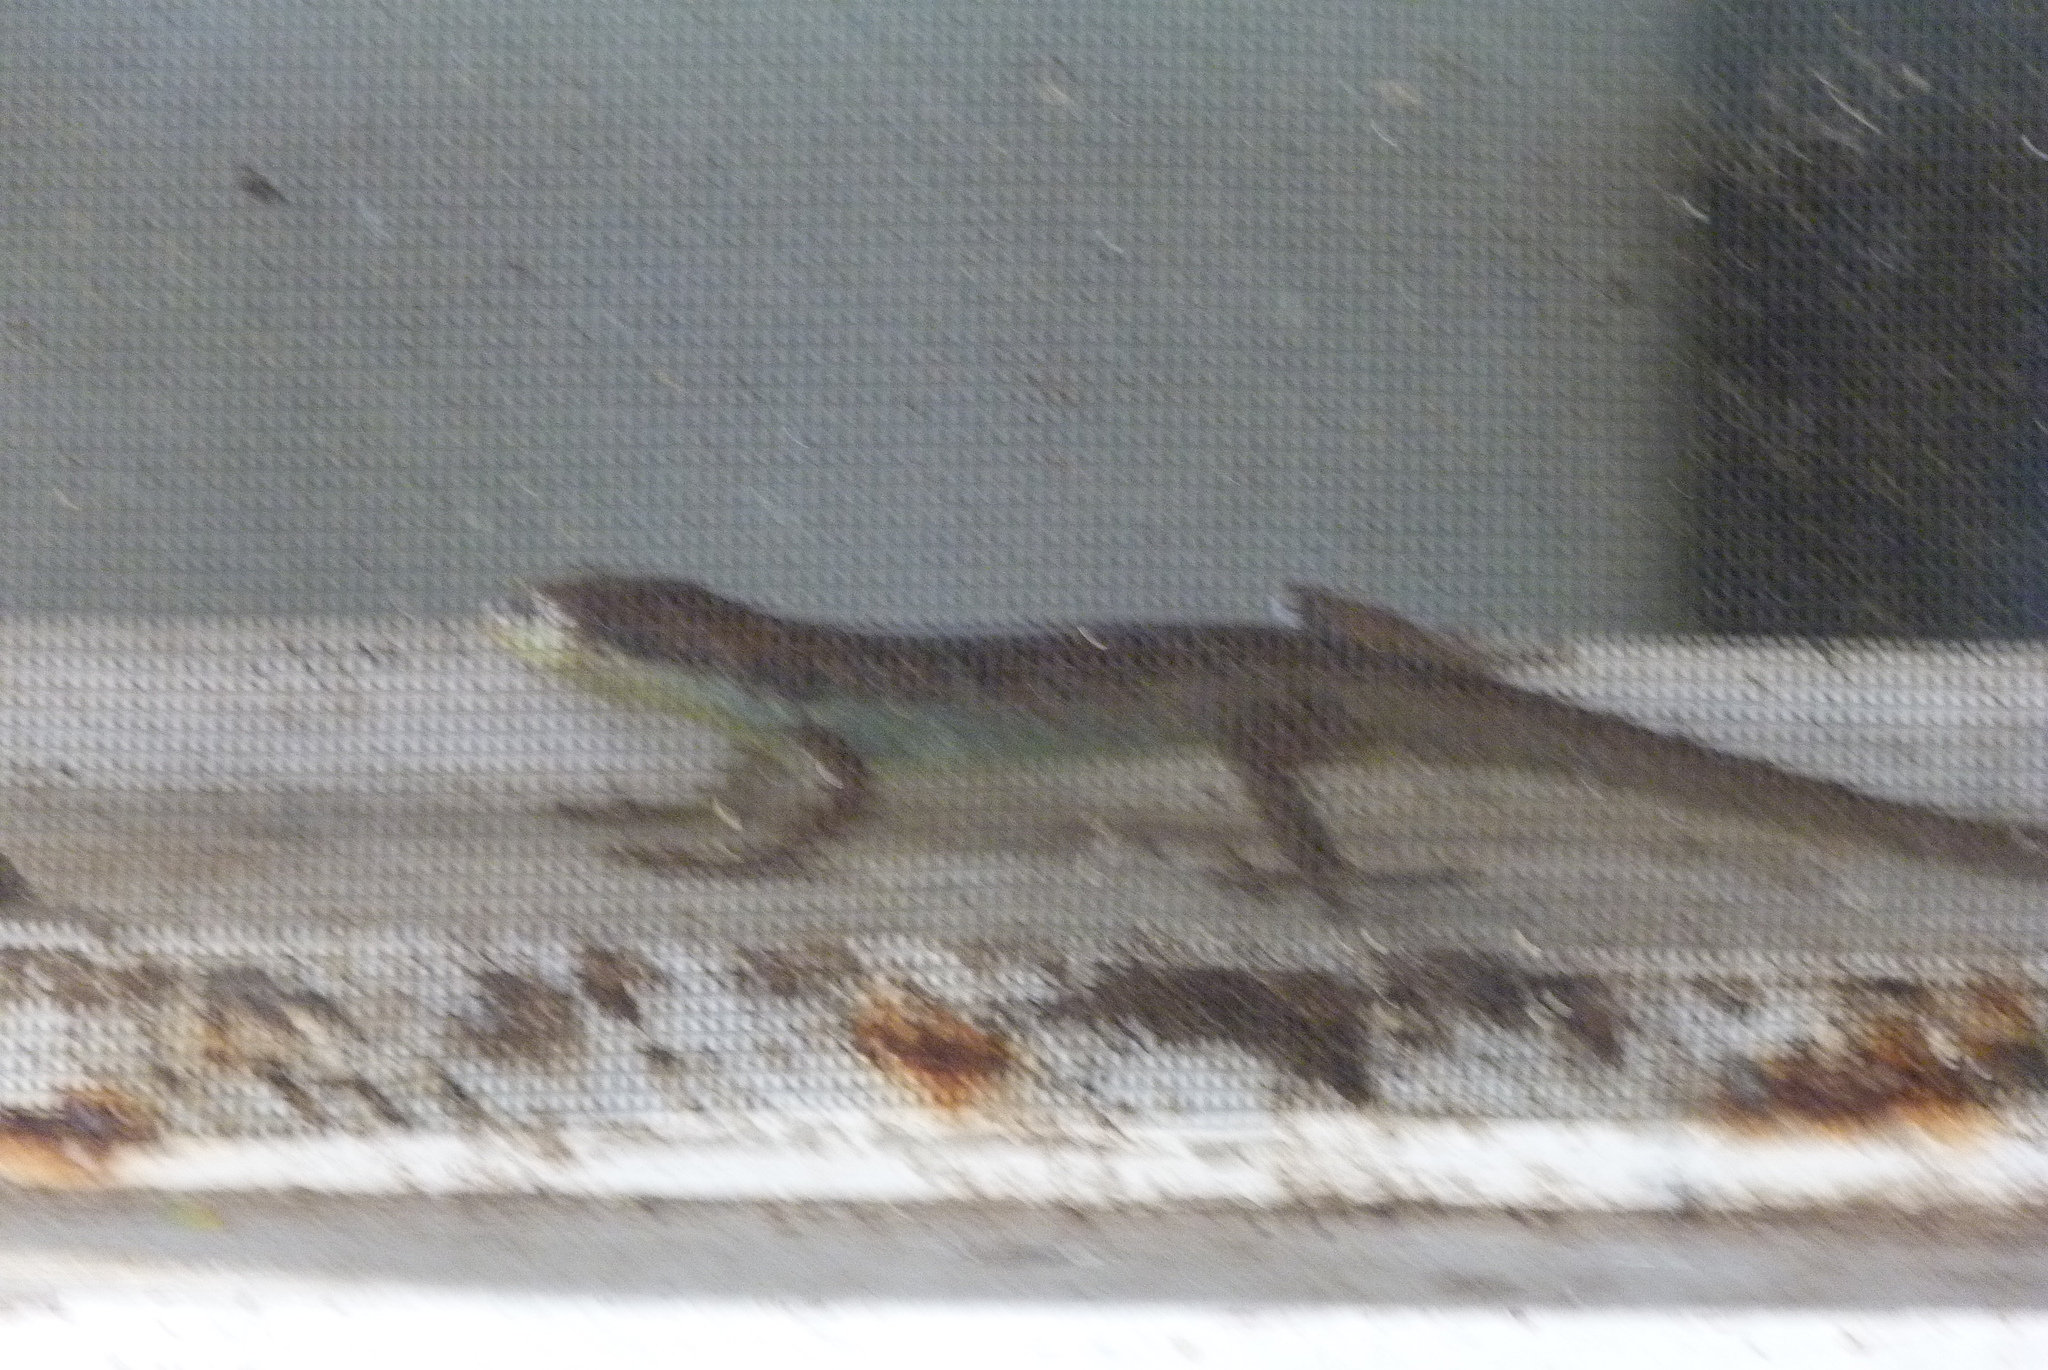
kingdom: Animalia
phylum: Chordata
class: Squamata
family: Scincidae
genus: Emoia
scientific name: Emoia tuitarere
